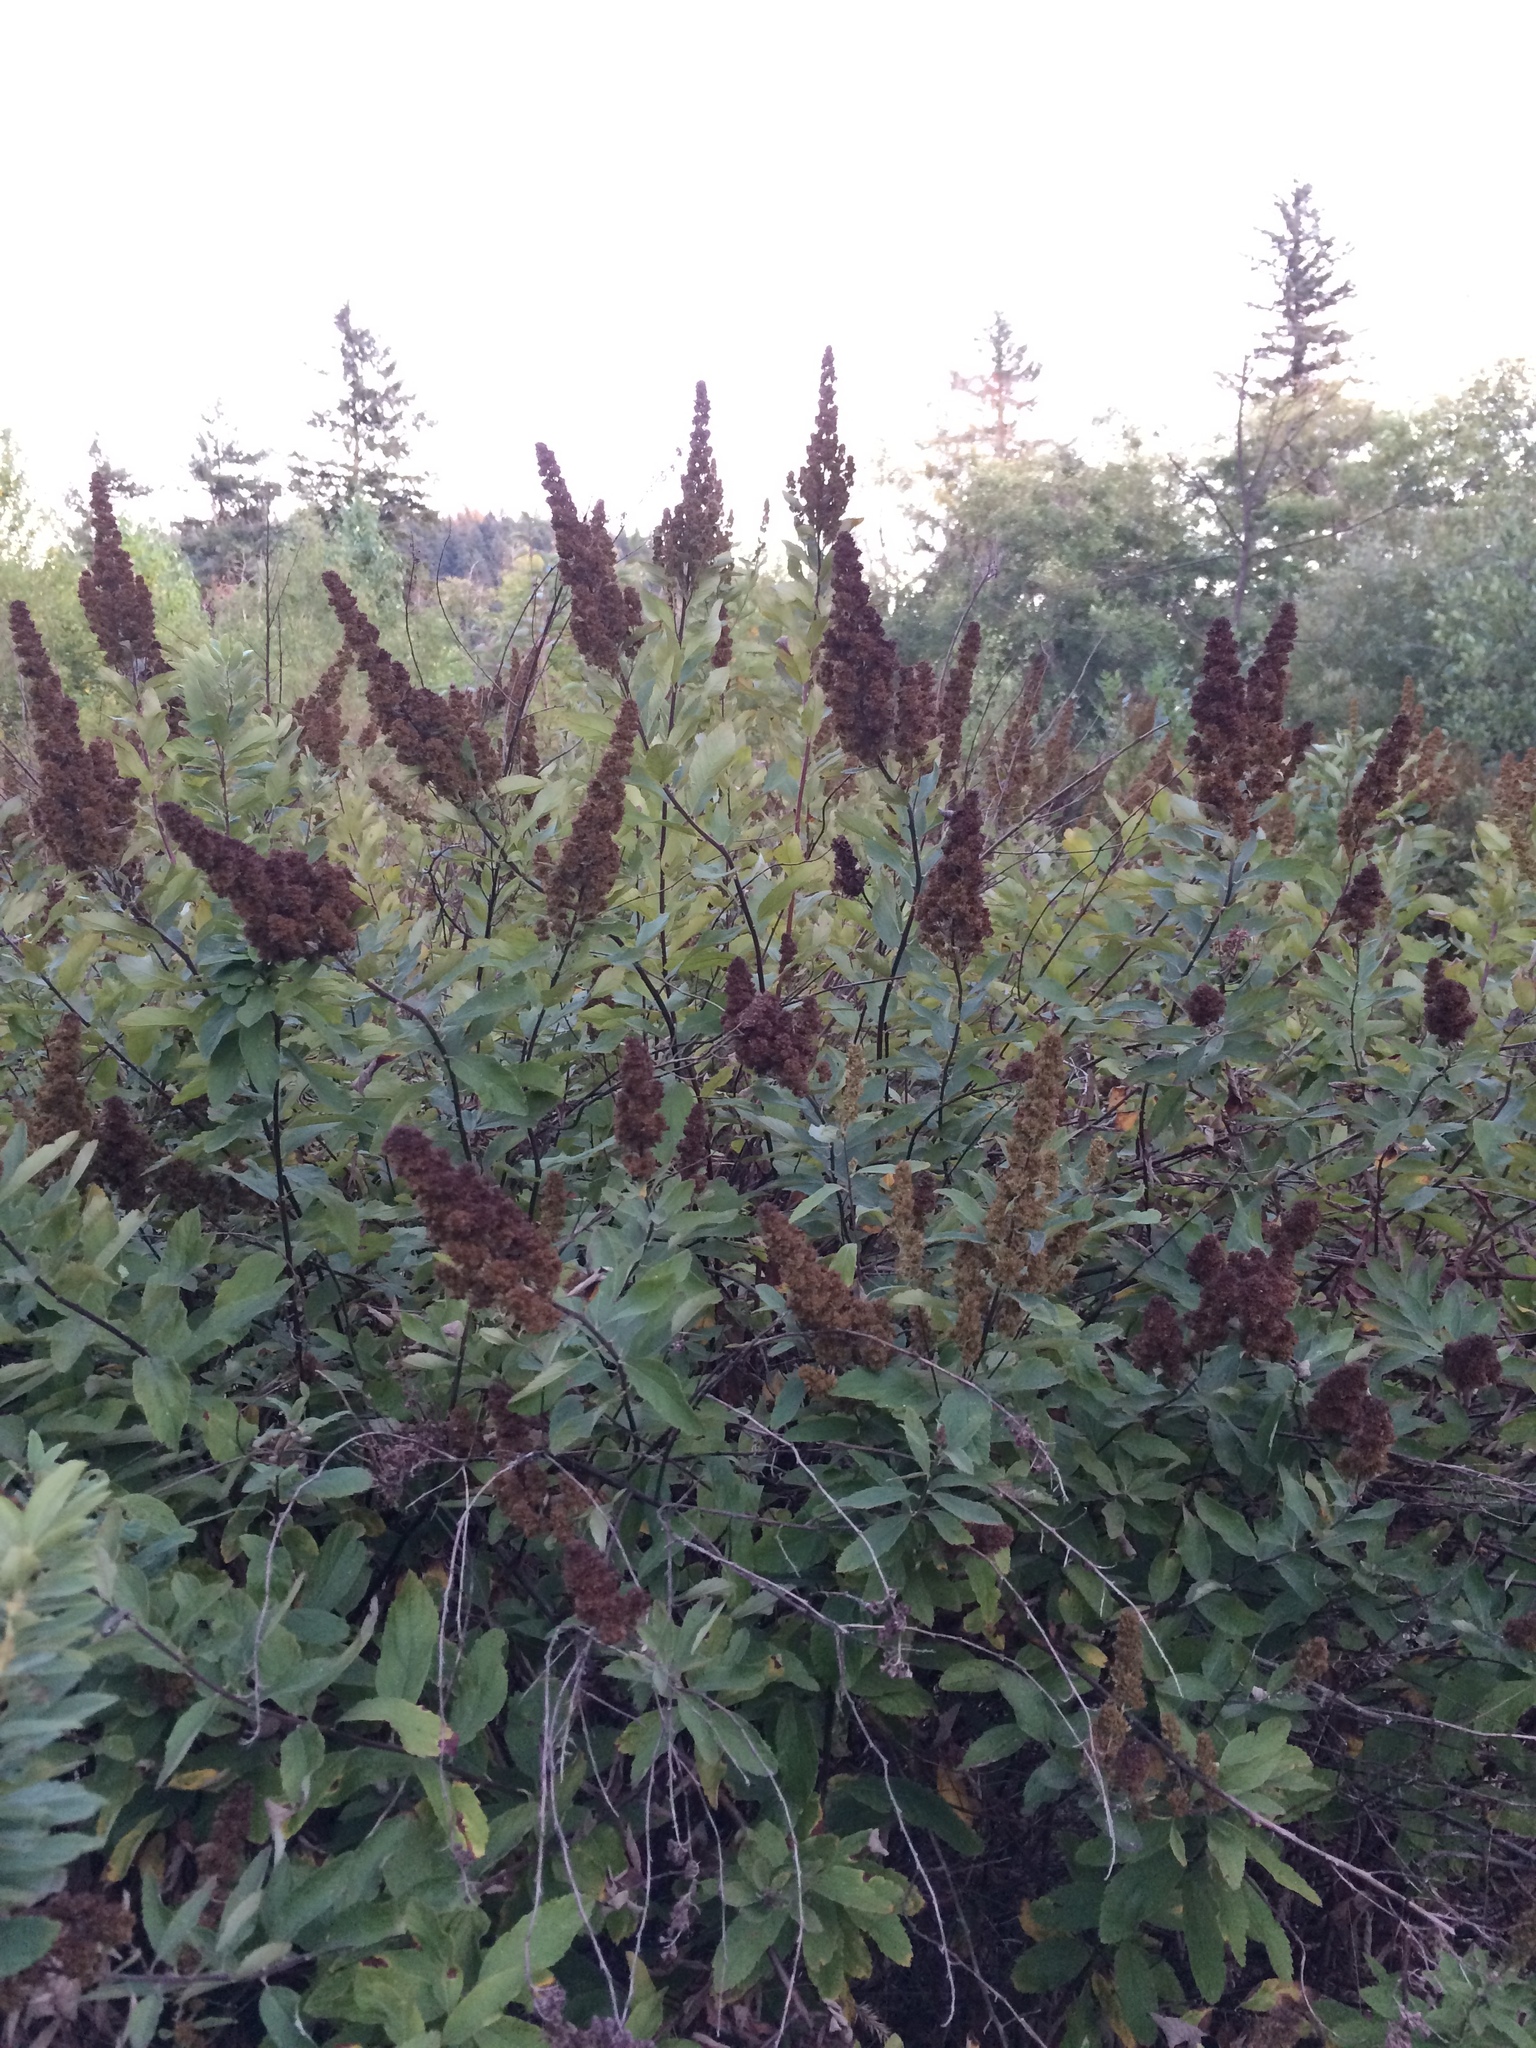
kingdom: Plantae
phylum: Tracheophyta
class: Magnoliopsida
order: Rosales
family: Rosaceae
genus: Spiraea
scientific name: Spiraea douglasii
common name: Steeplebush
